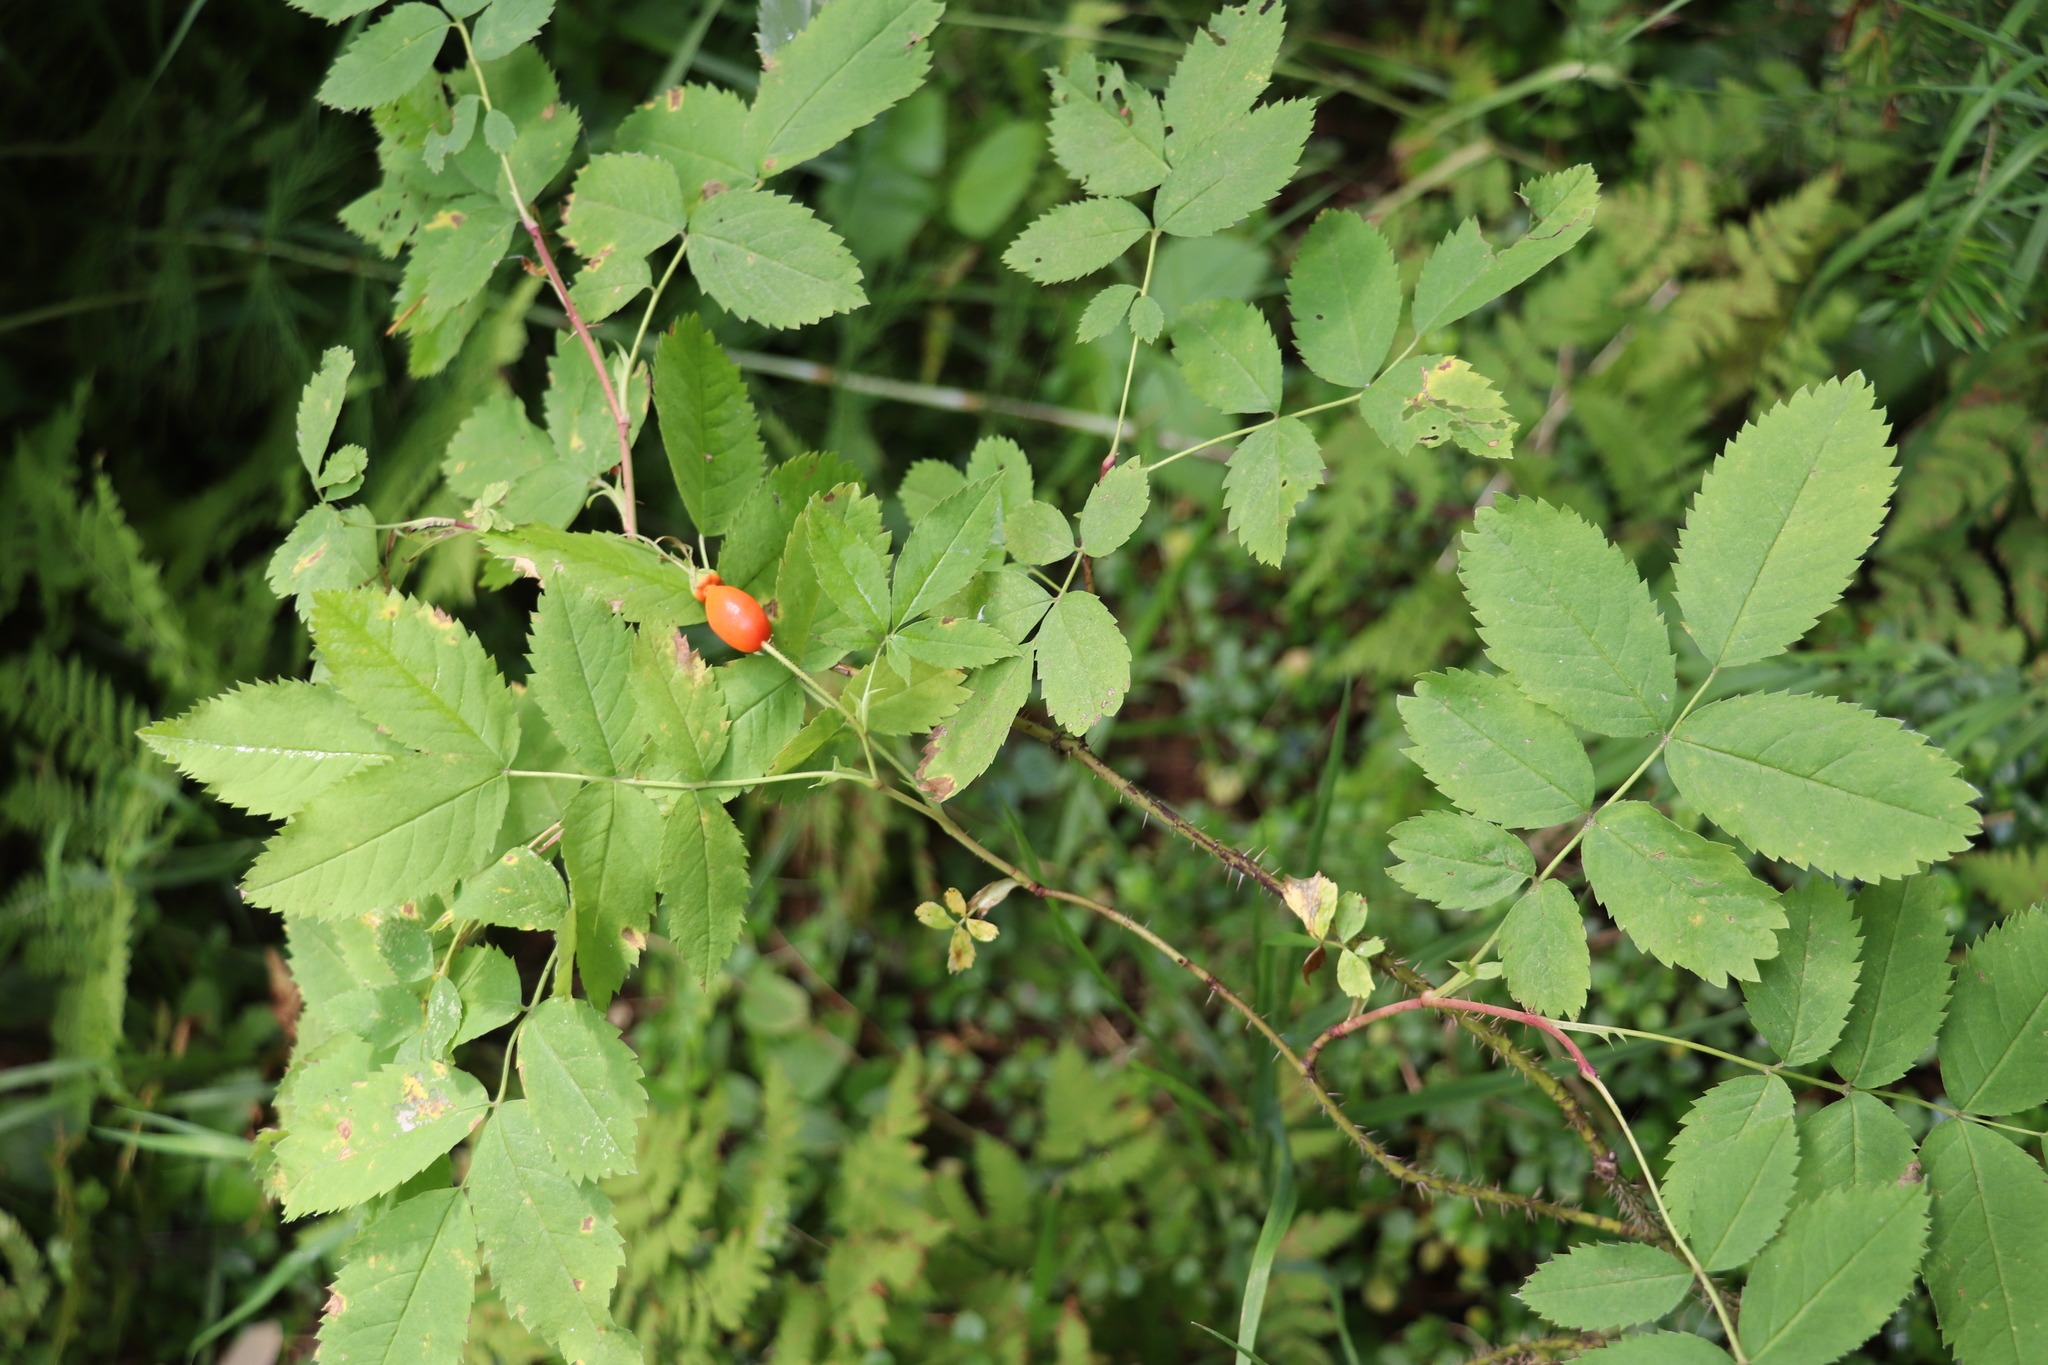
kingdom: Plantae
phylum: Tracheophyta
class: Magnoliopsida
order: Rosales
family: Rosaceae
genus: Rosa
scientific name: Rosa acicularis
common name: Prickly rose
